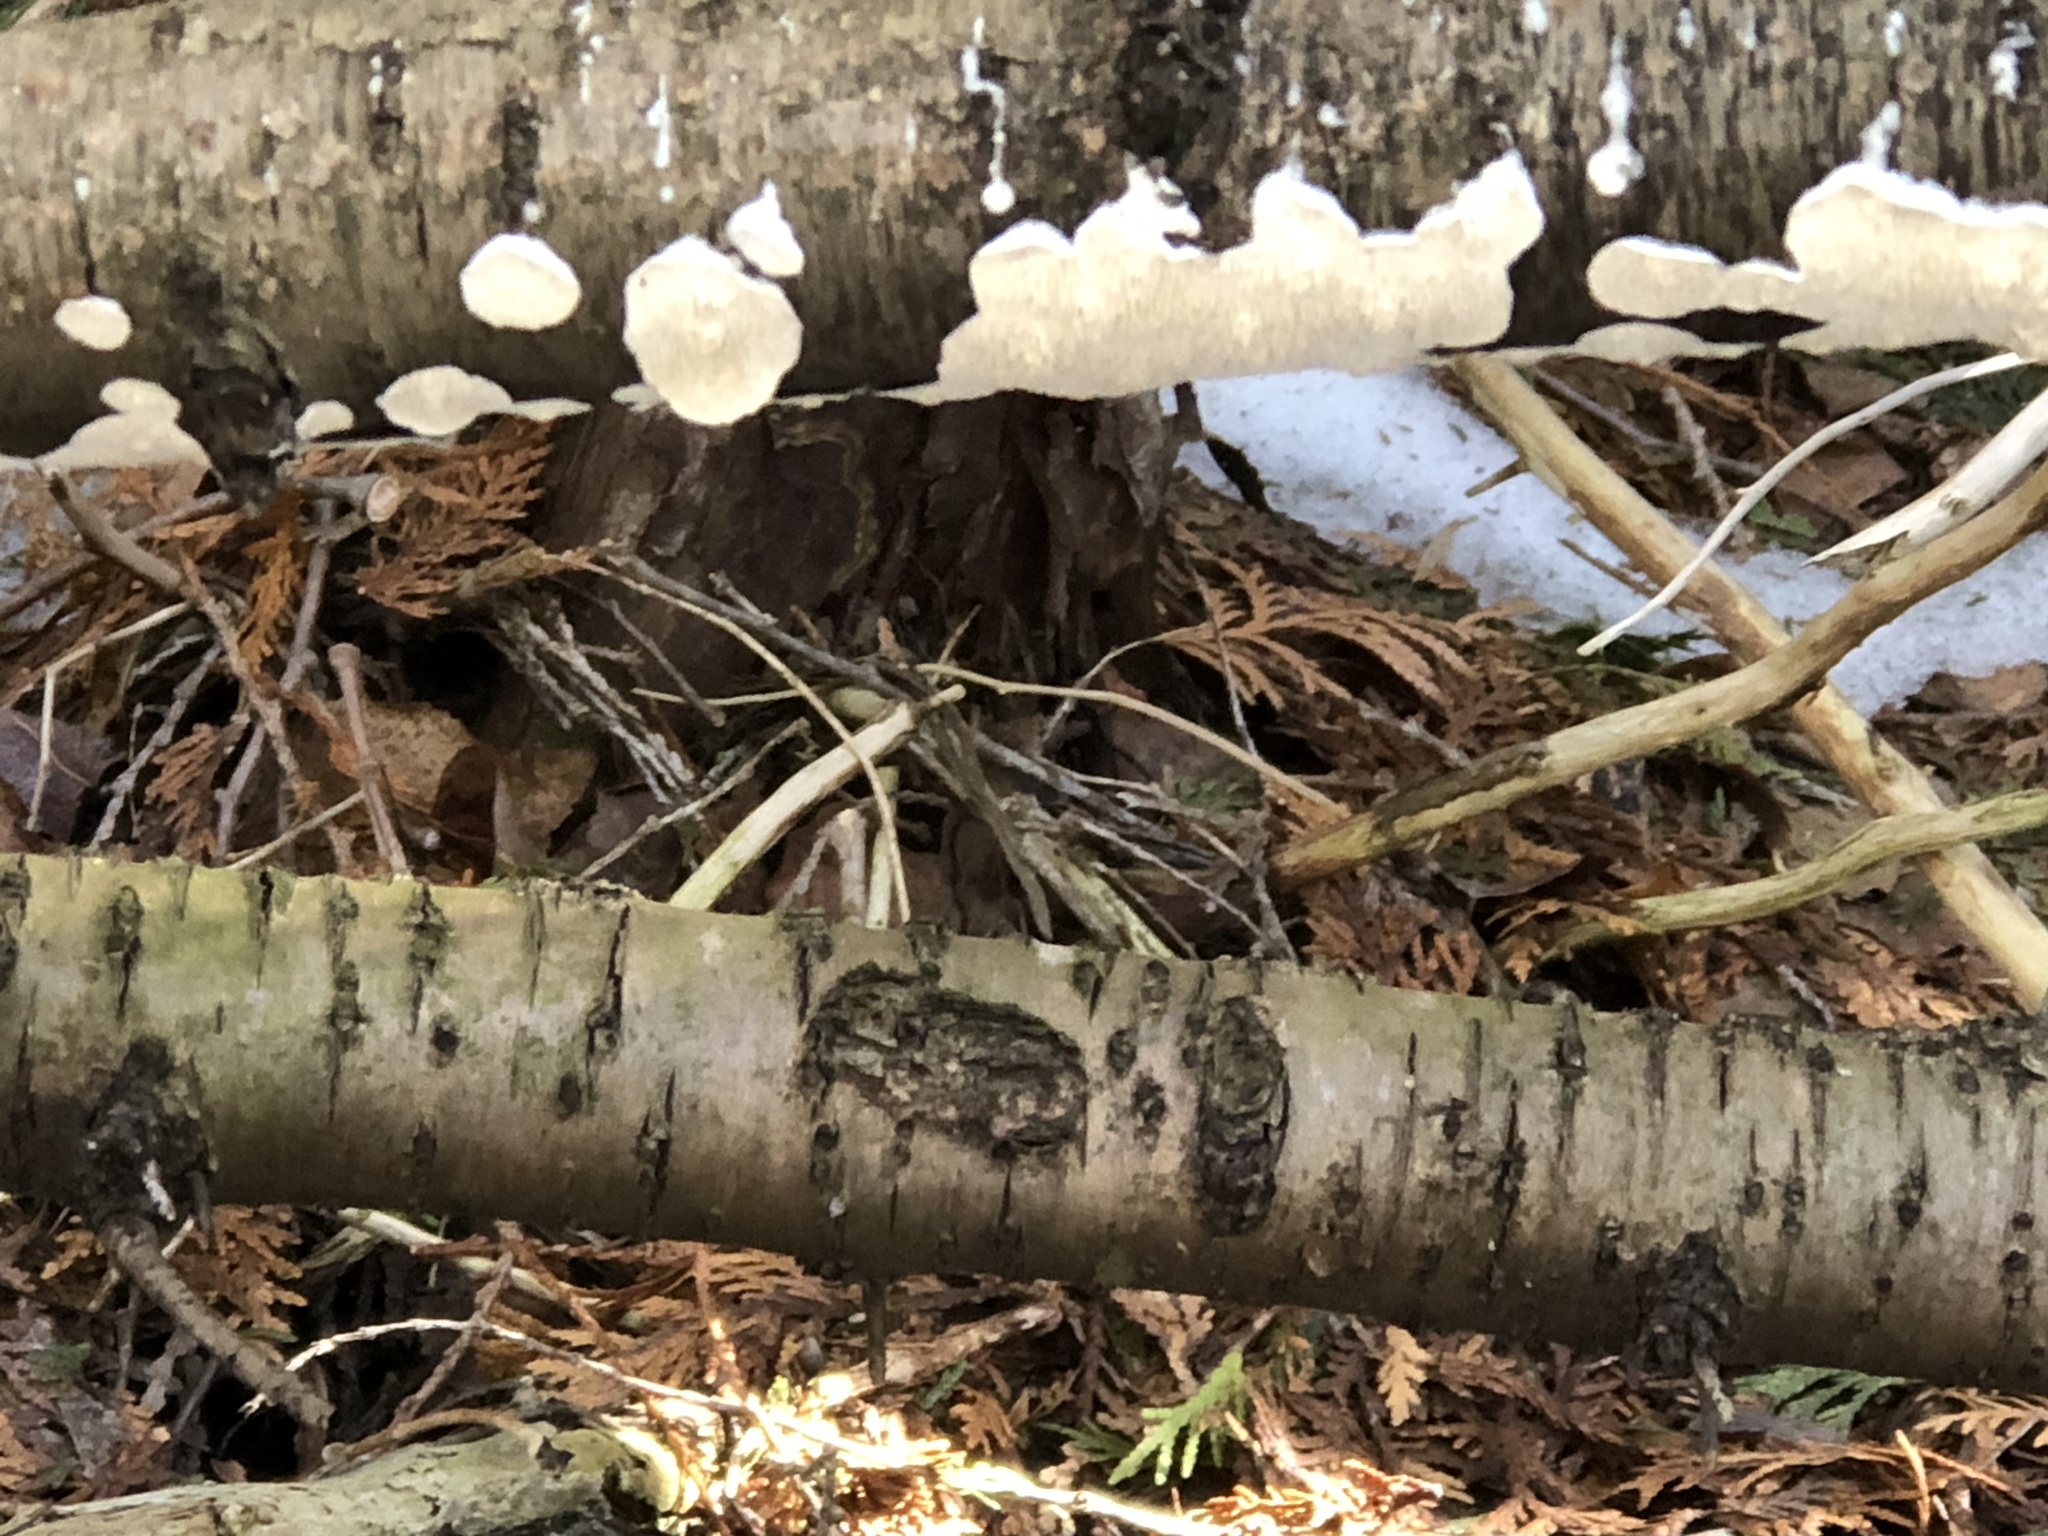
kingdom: Plantae
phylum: Tracheophyta
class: Magnoliopsida
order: Rosales
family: Rhamnaceae
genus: Rhamnus
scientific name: Rhamnus cathartica
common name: Common buckthorn
